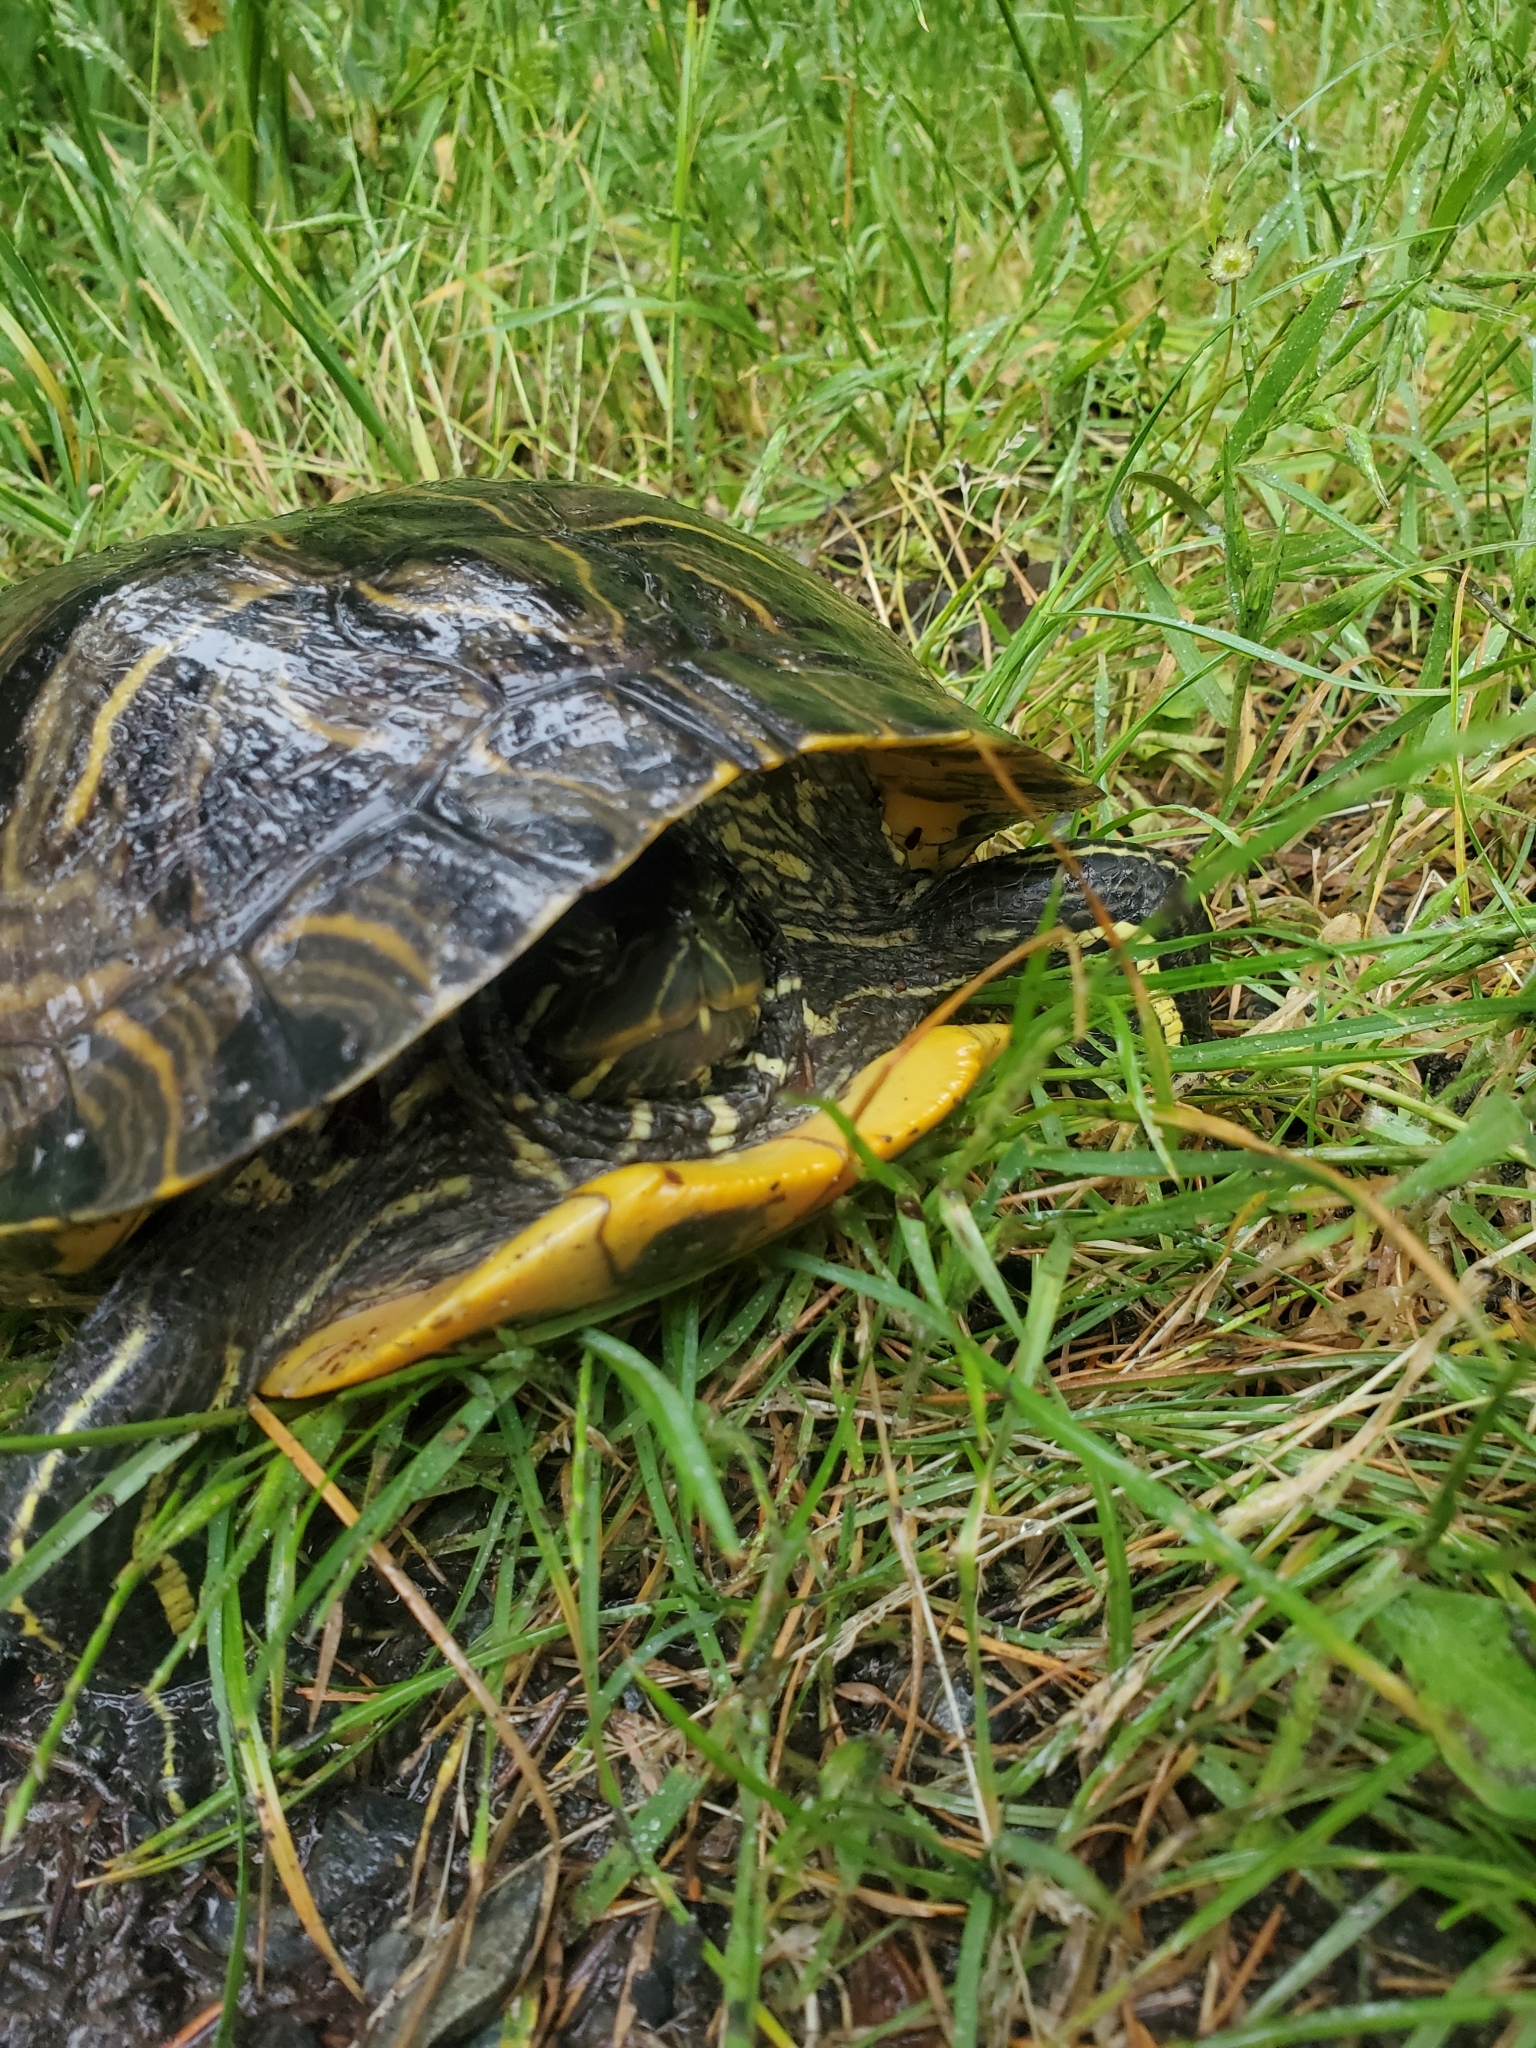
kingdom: Animalia
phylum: Chordata
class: Testudines
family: Emydidae
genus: Trachemys
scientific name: Trachemys scripta
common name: Slider
